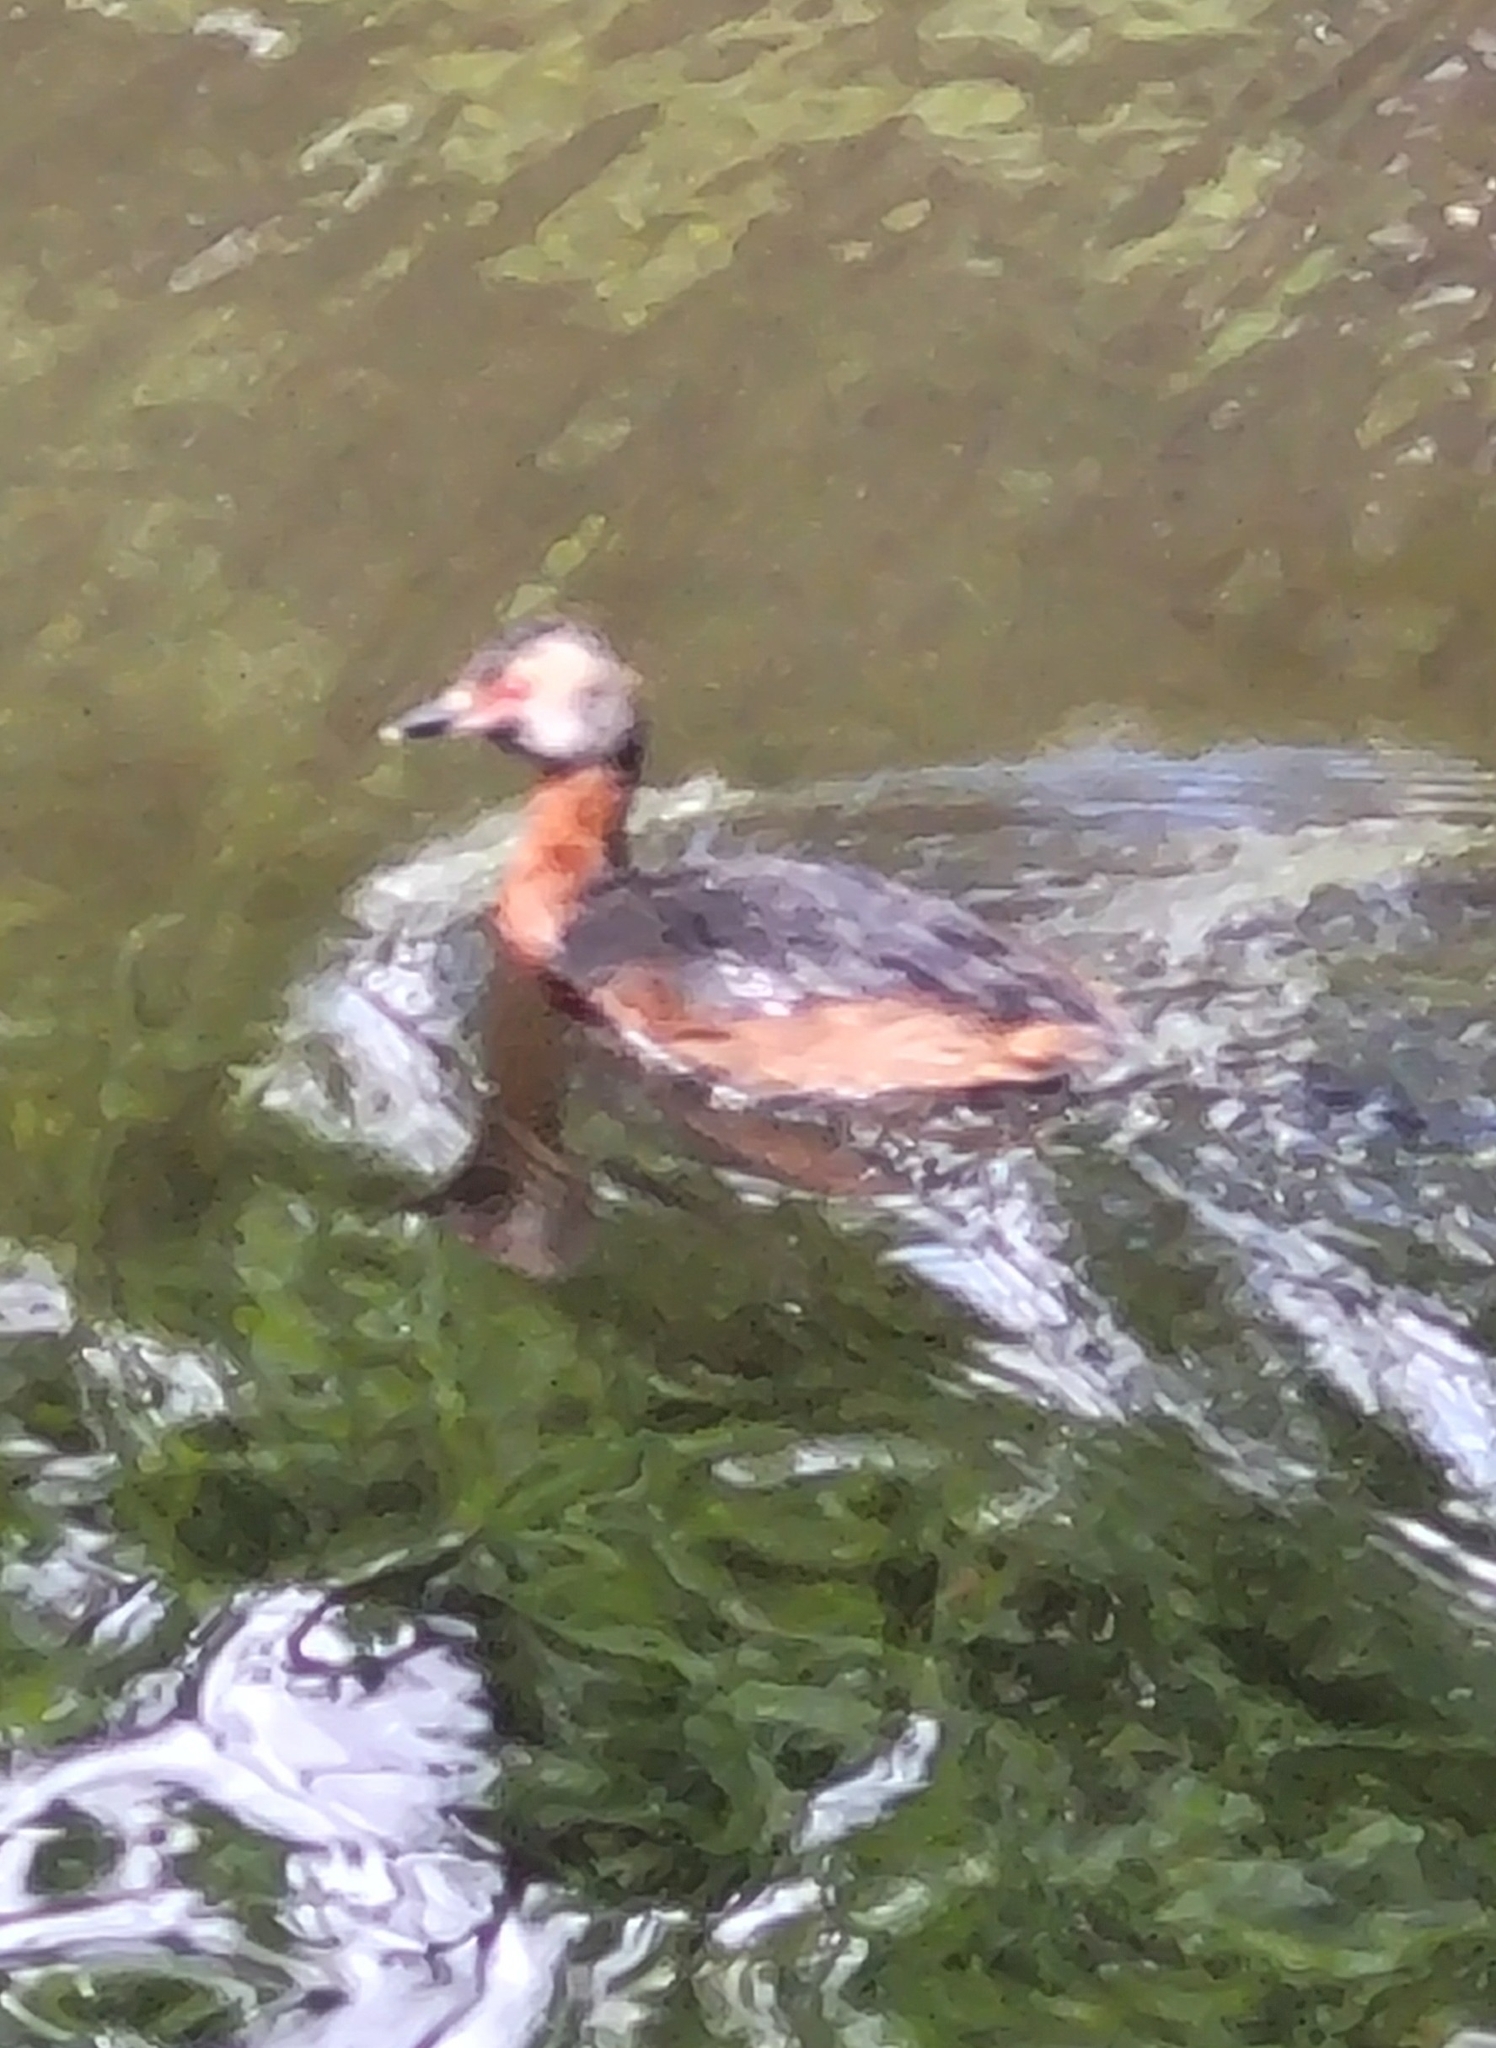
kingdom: Animalia
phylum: Chordata
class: Aves
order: Podicipediformes
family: Podicipedidae
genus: Podiceps
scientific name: Podiceps auritus
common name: Horned grebe
